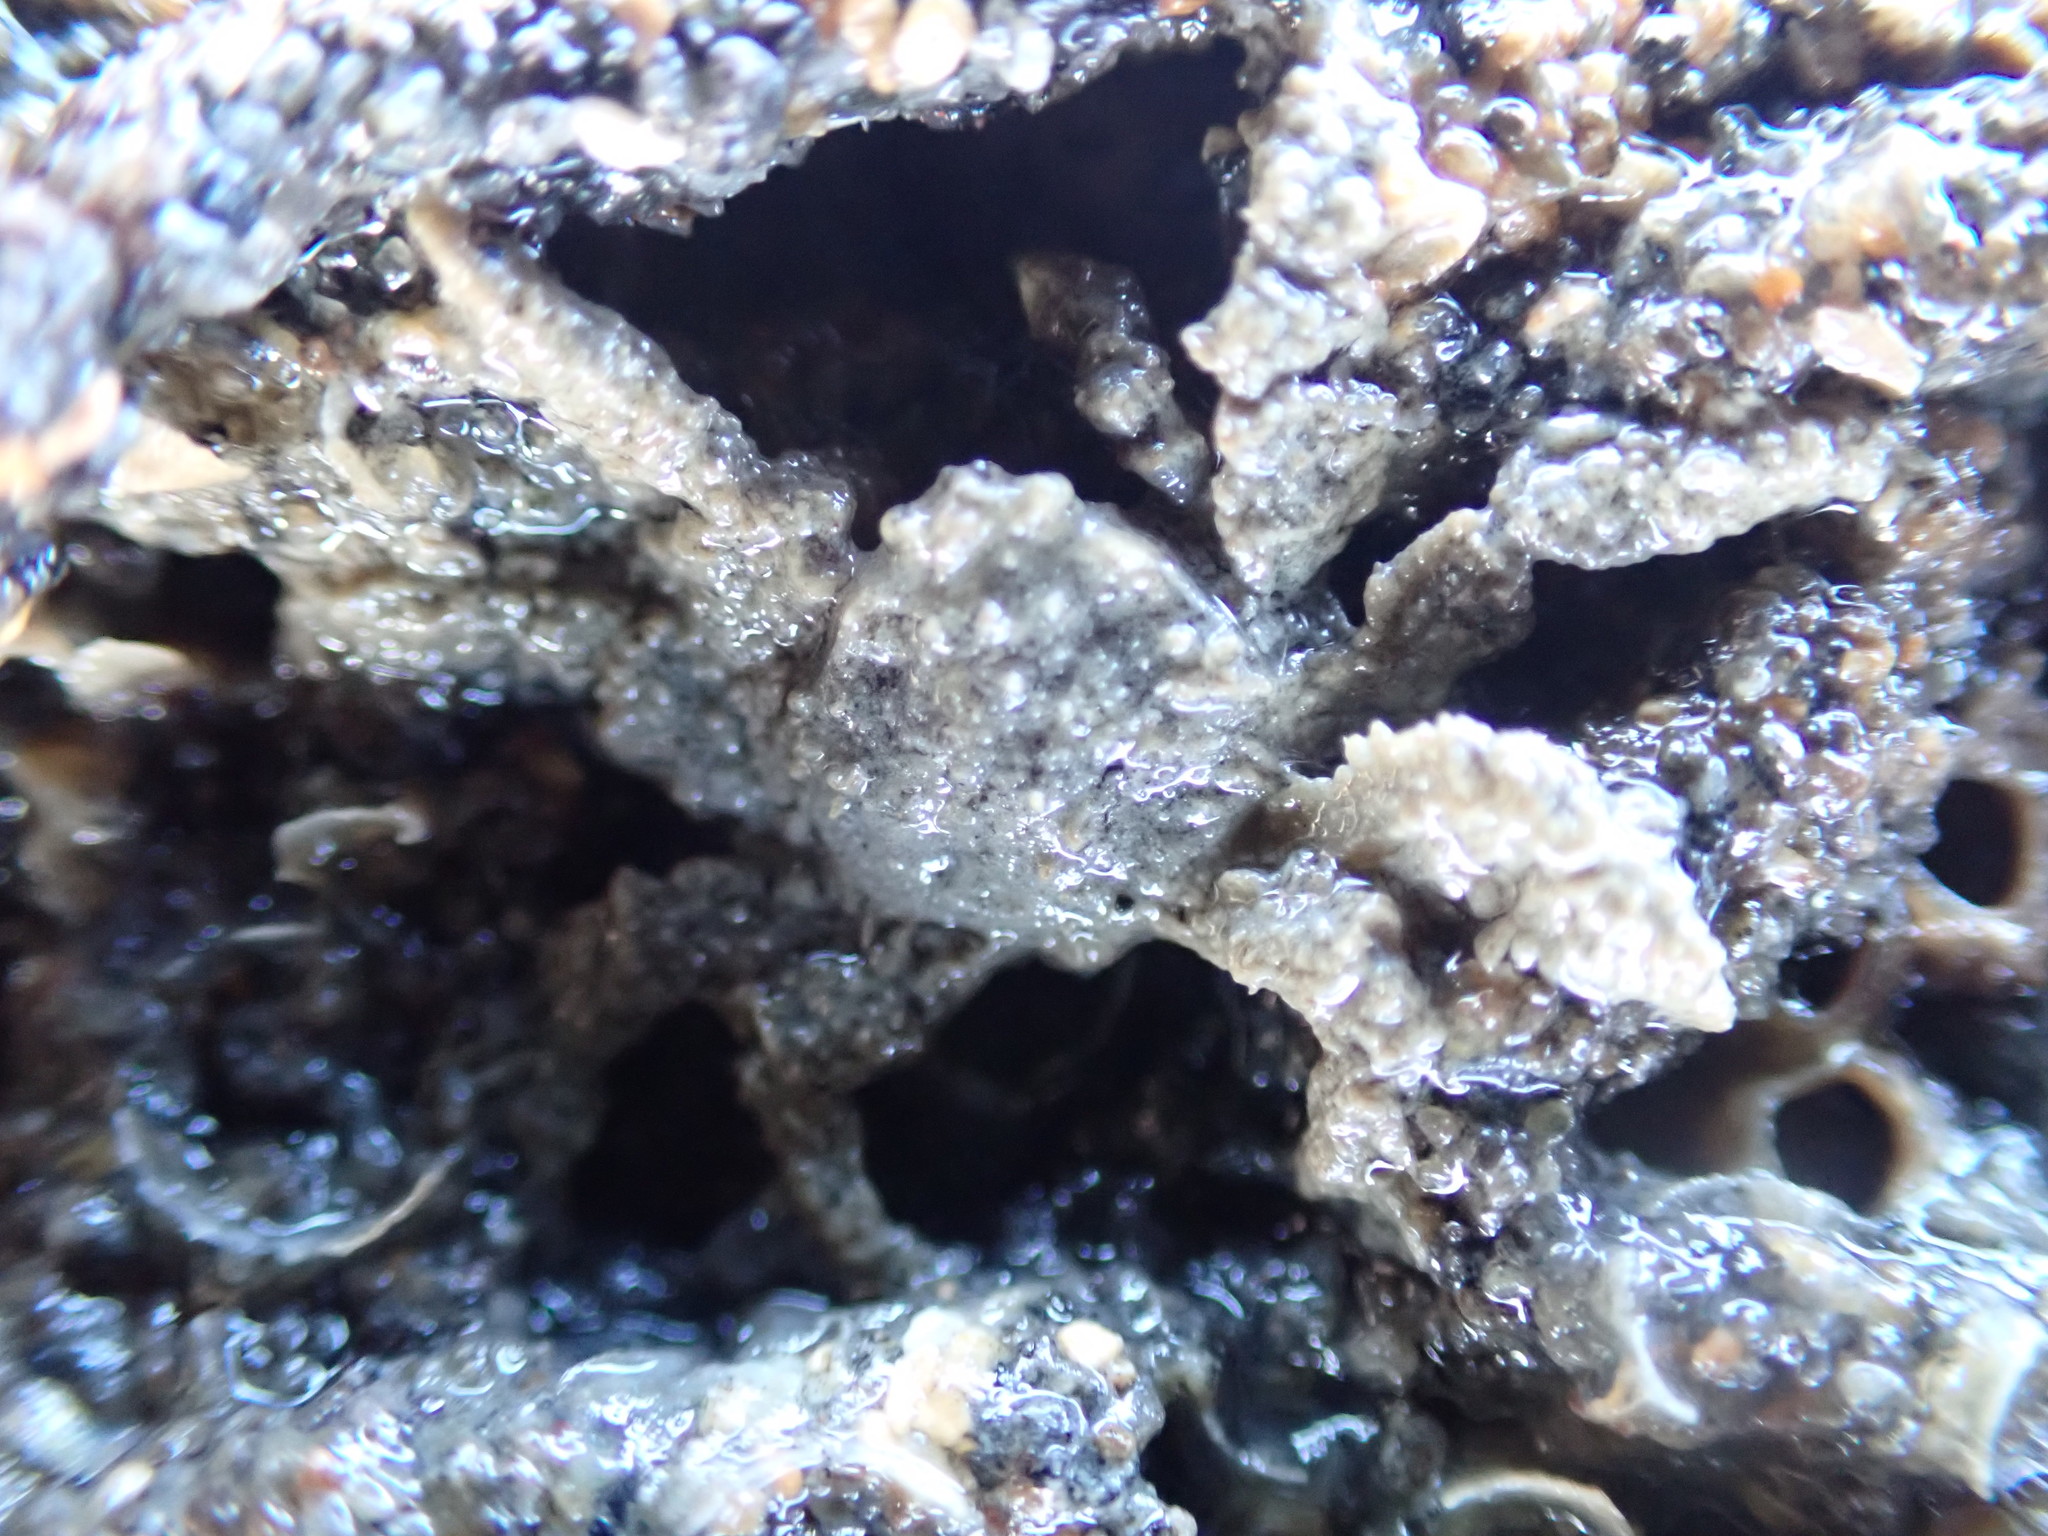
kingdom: Animalia
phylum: Arthropoda
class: Malacostraca
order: Decapoda
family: Hymenosomatidae
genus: Neohymenicus
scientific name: Neohymenicus pubescens
